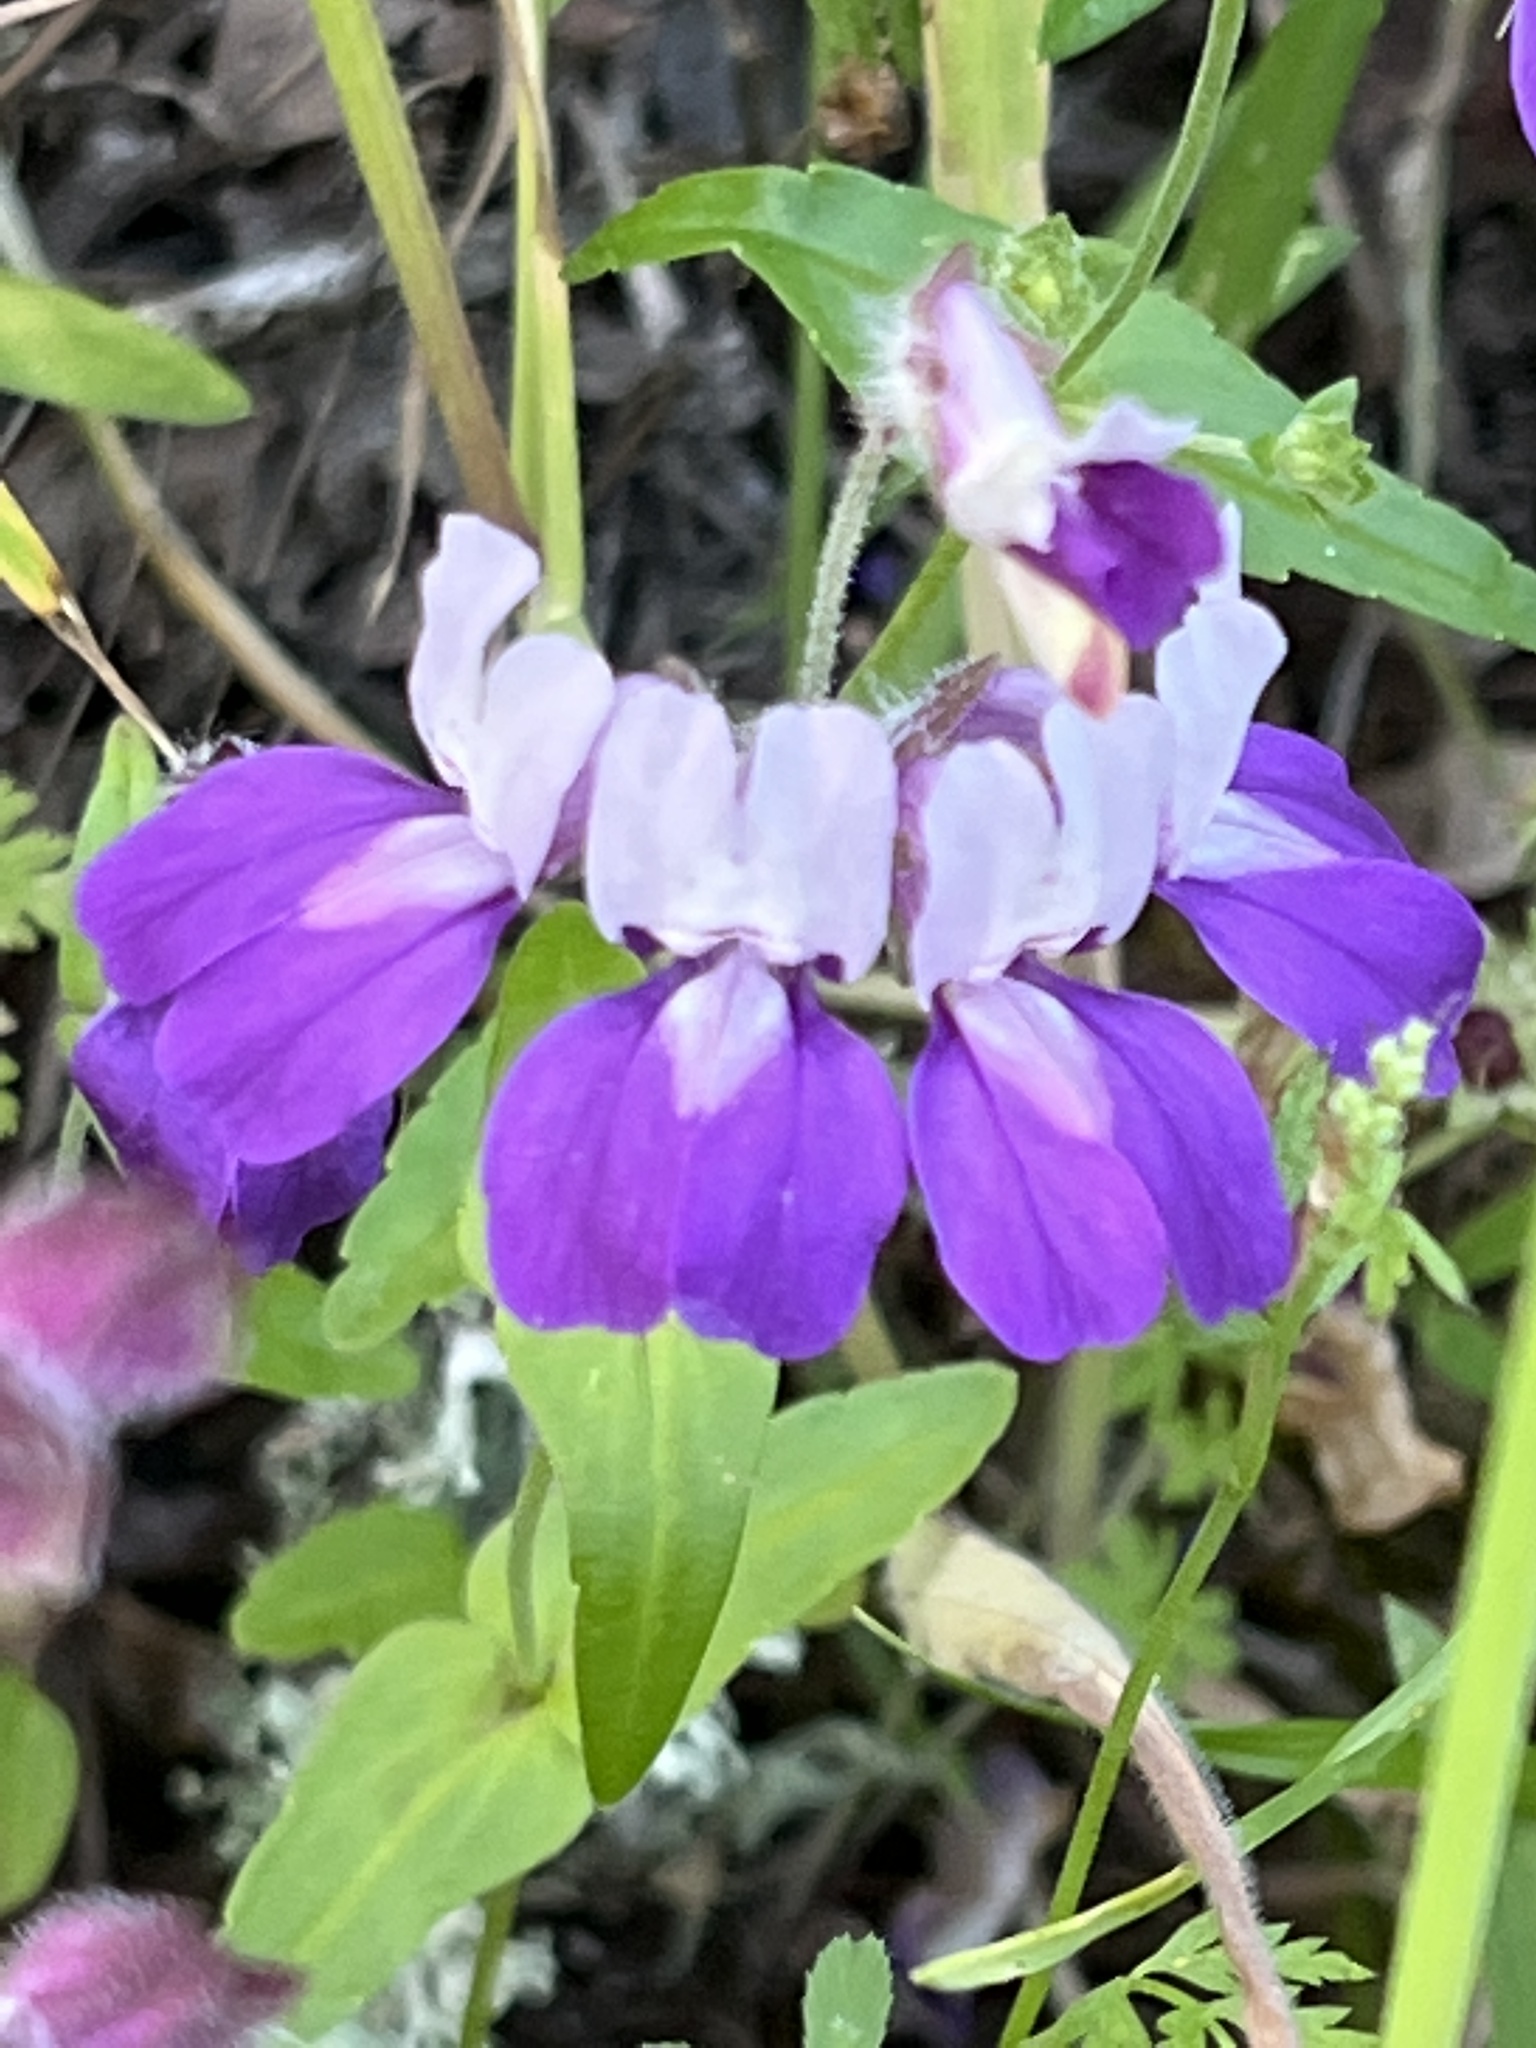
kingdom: Plantae
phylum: Tracheophyta
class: Magnoliopsida
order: Lamiales
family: Plantaginaceae
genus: Collinsia
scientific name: Collinsia heterophylla
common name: Chinese-houses
